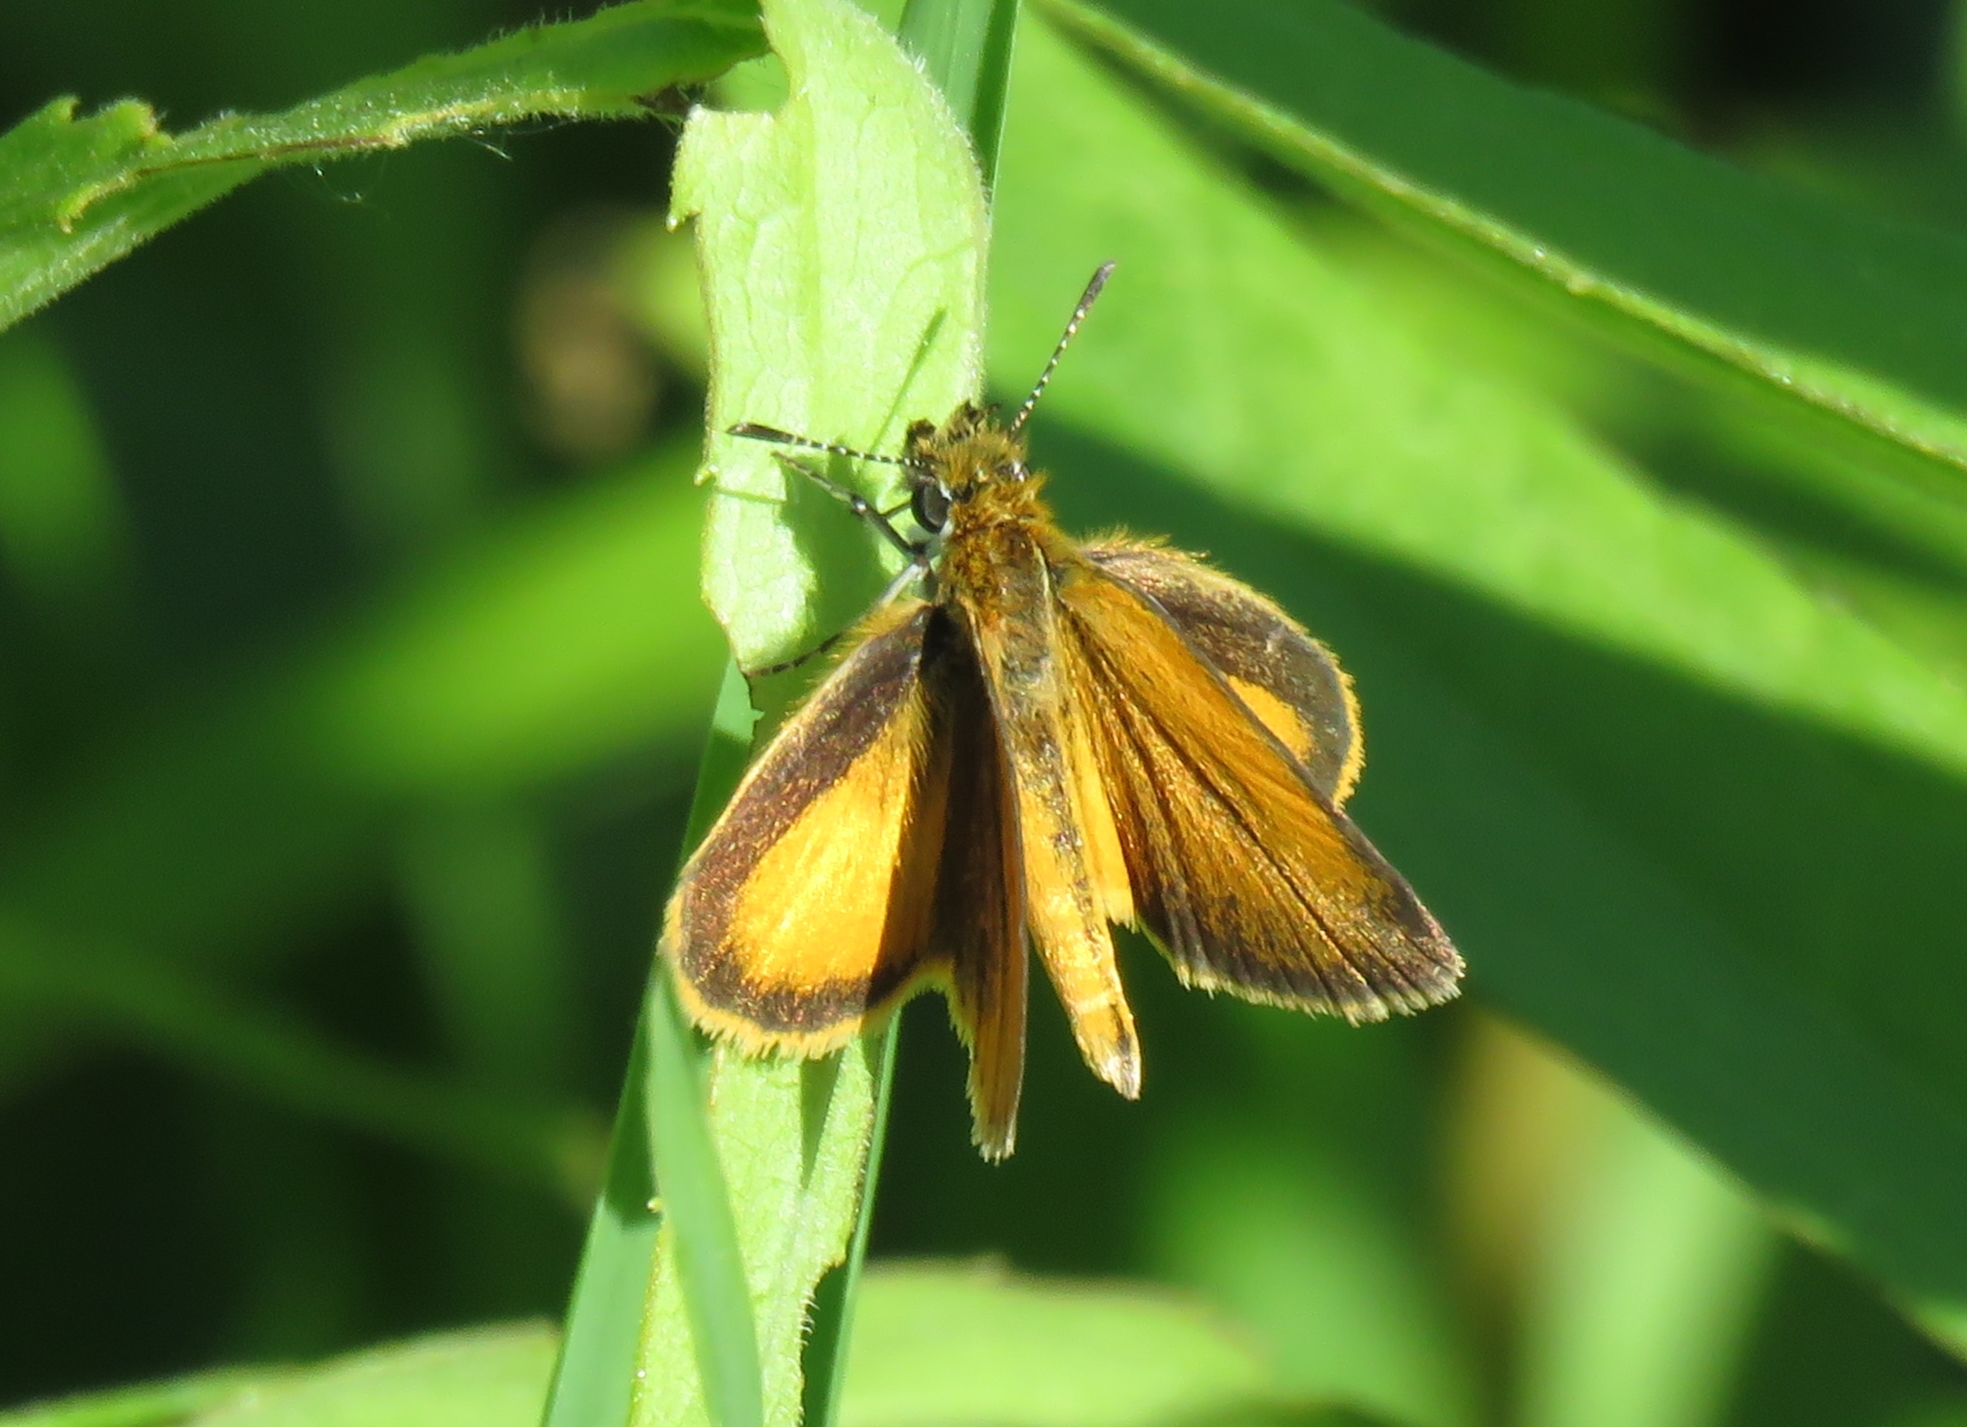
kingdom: Animalia
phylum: Arthropoda
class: Insecta
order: Lepidoptera
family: Hesperiidae
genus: Ancyloxypha
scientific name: Ancyloxypha numitor
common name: Least skipper
